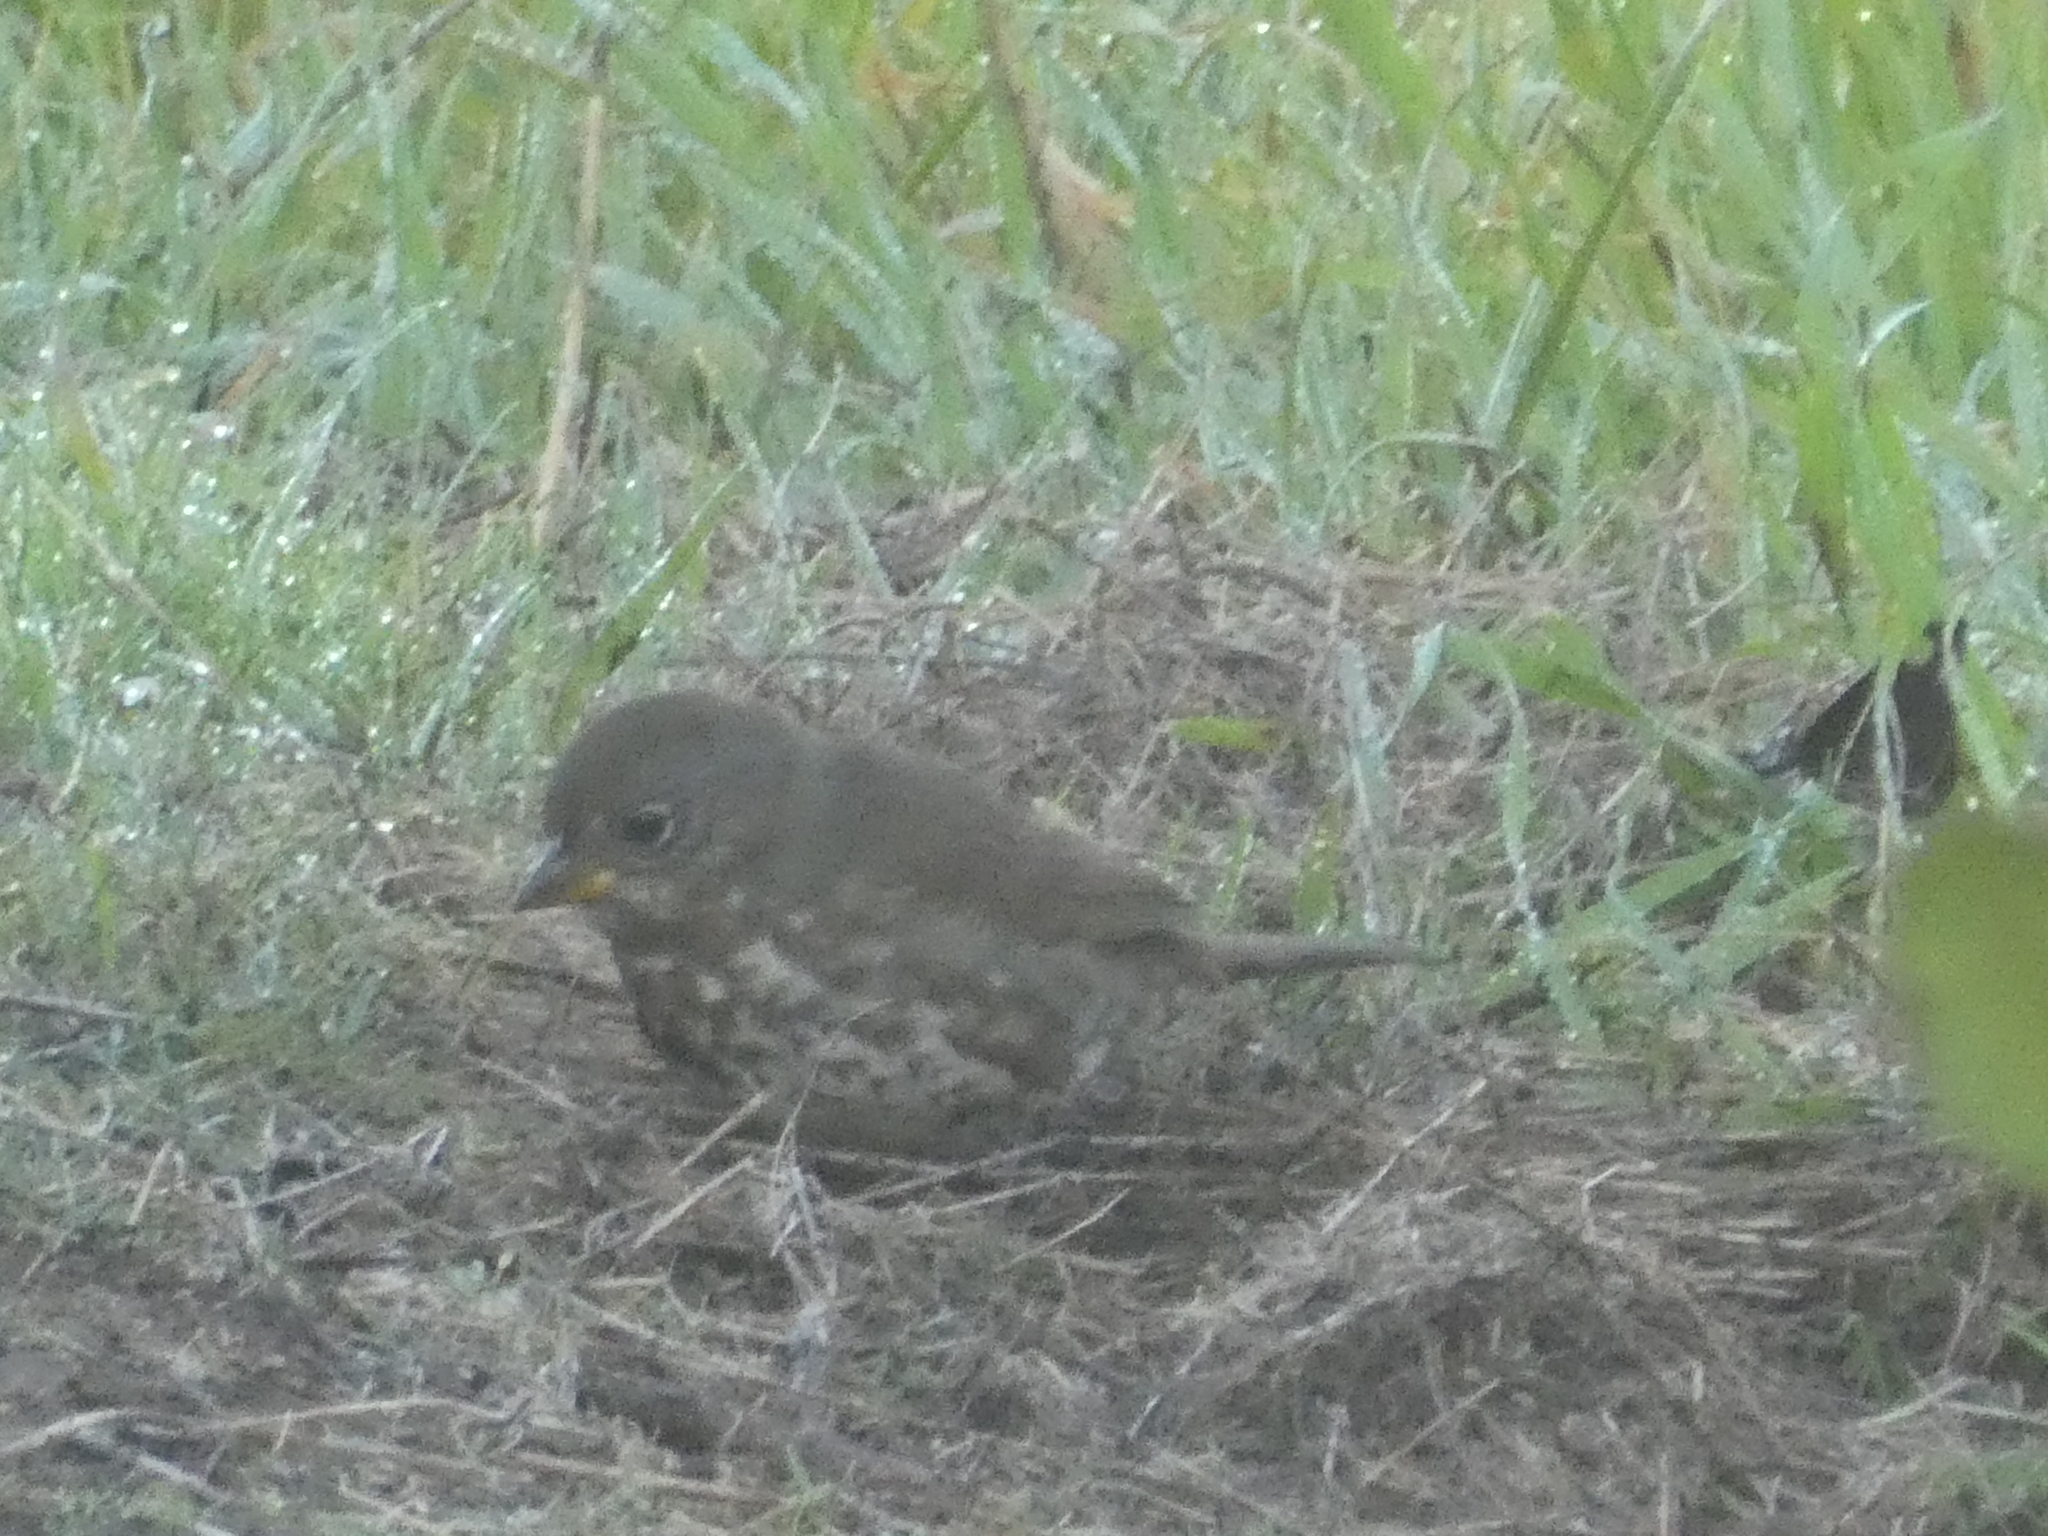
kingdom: Animalia
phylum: Chordata
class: Aves
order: Passeriformes
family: Passerellidae
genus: Passerella
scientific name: Passerella iliaca
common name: Fox sparrow
